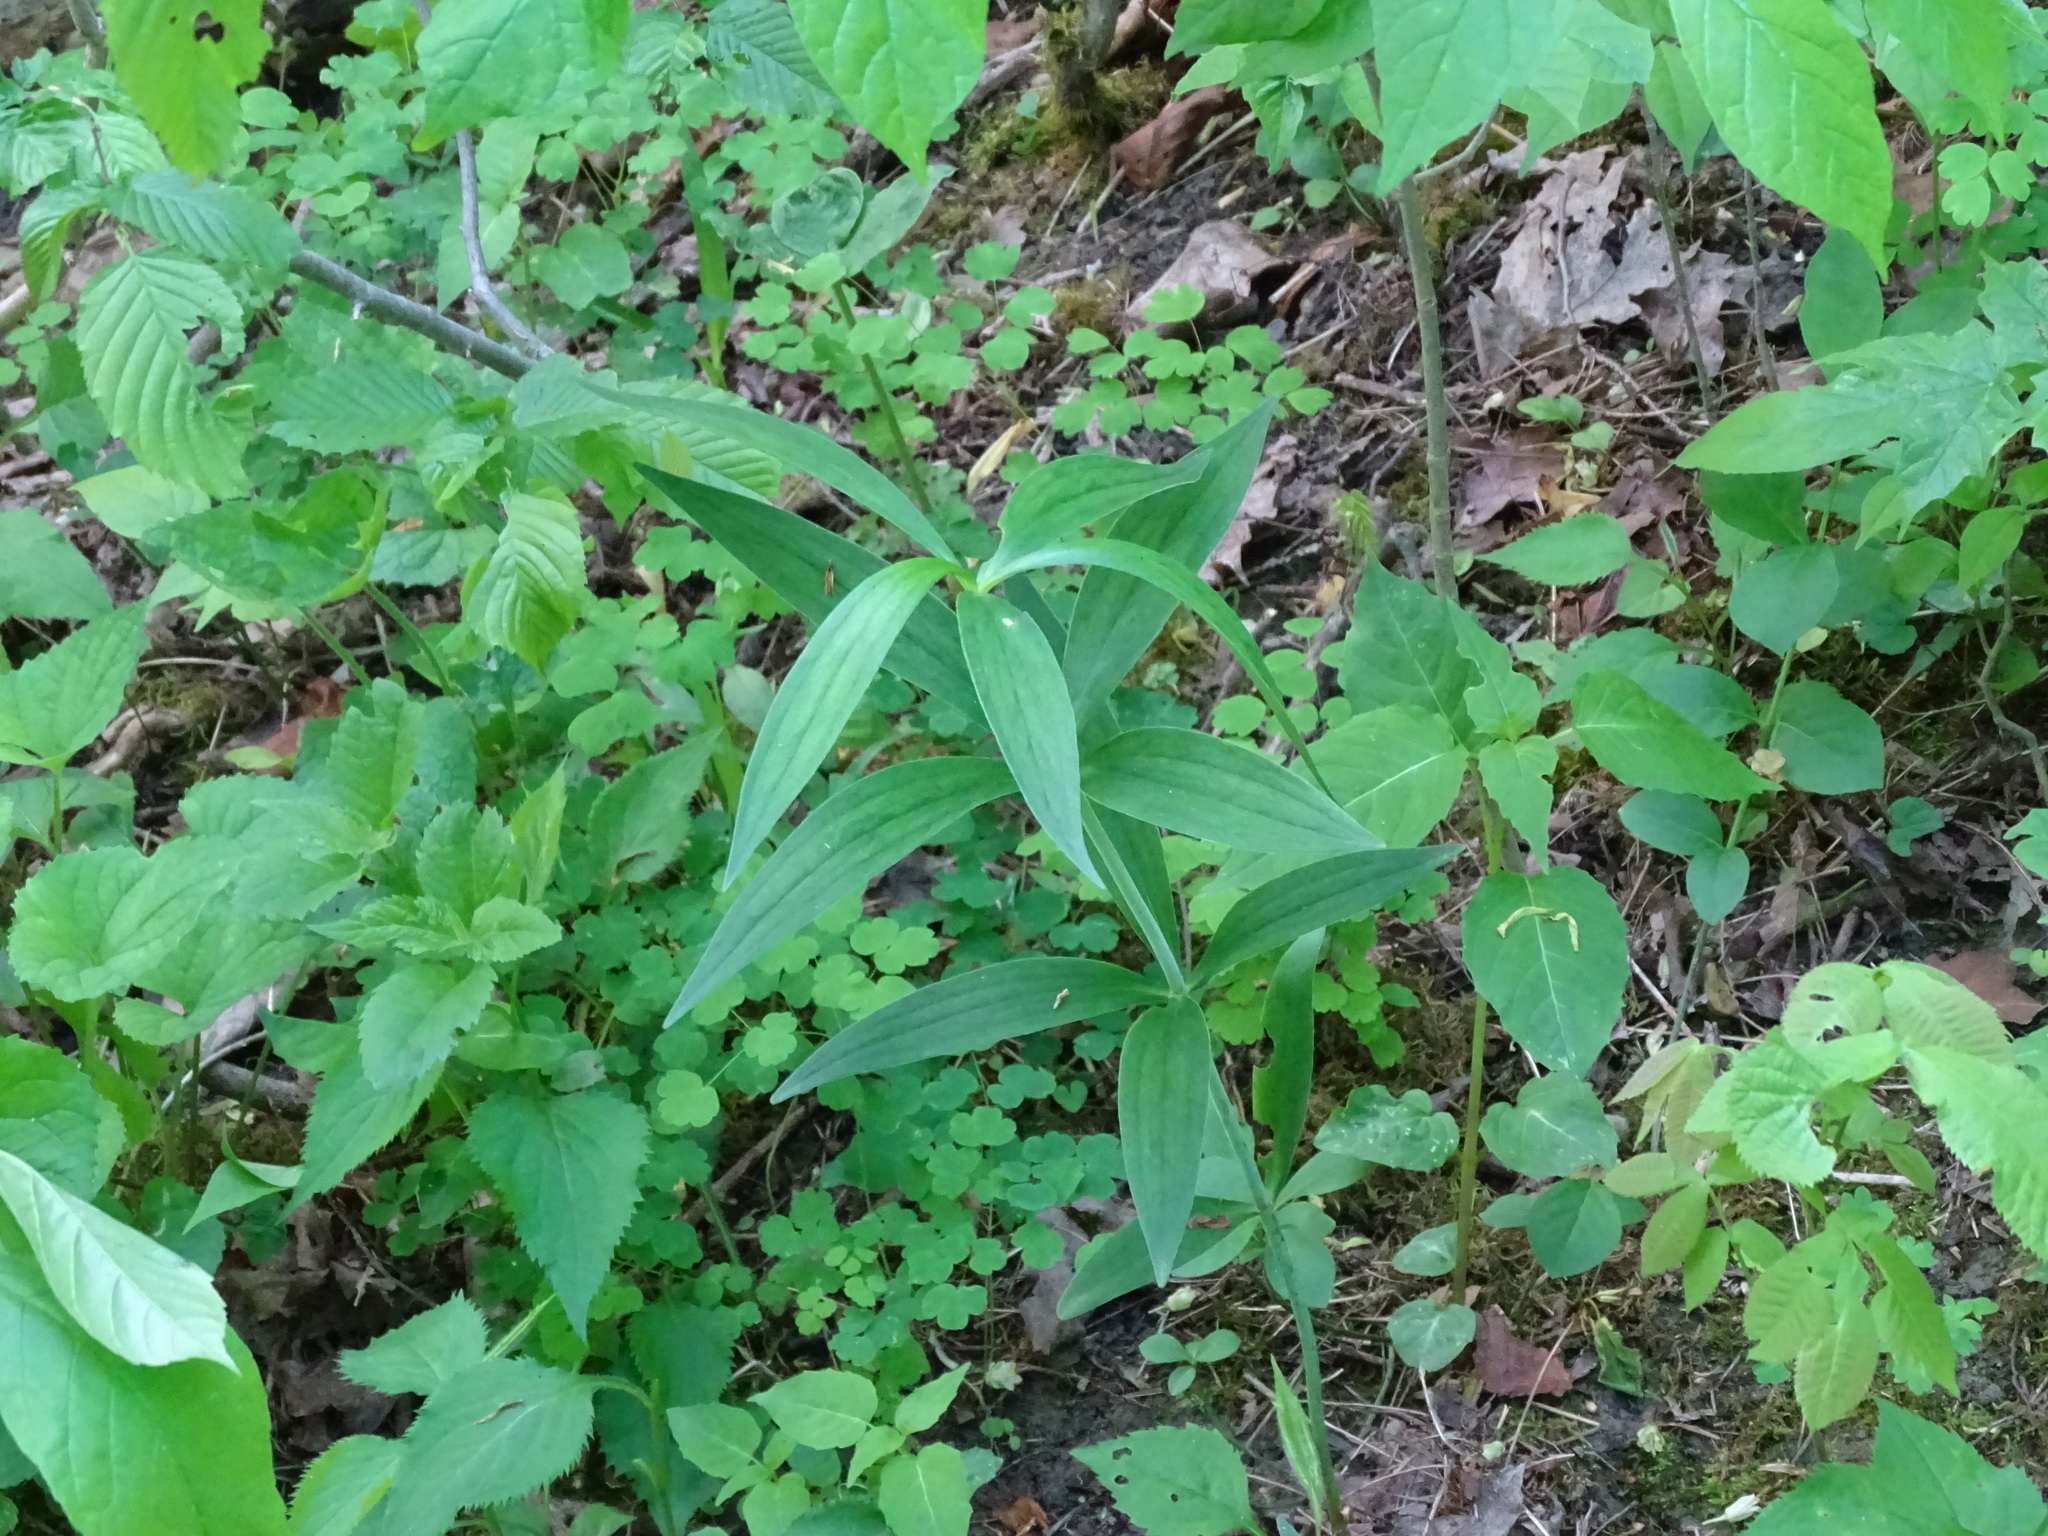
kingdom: Plantae
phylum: Tracheophyta
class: Liliopsida
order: Liliales
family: Liliaceae
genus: Lilium
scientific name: Lilium michiganense
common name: Michigan lily
